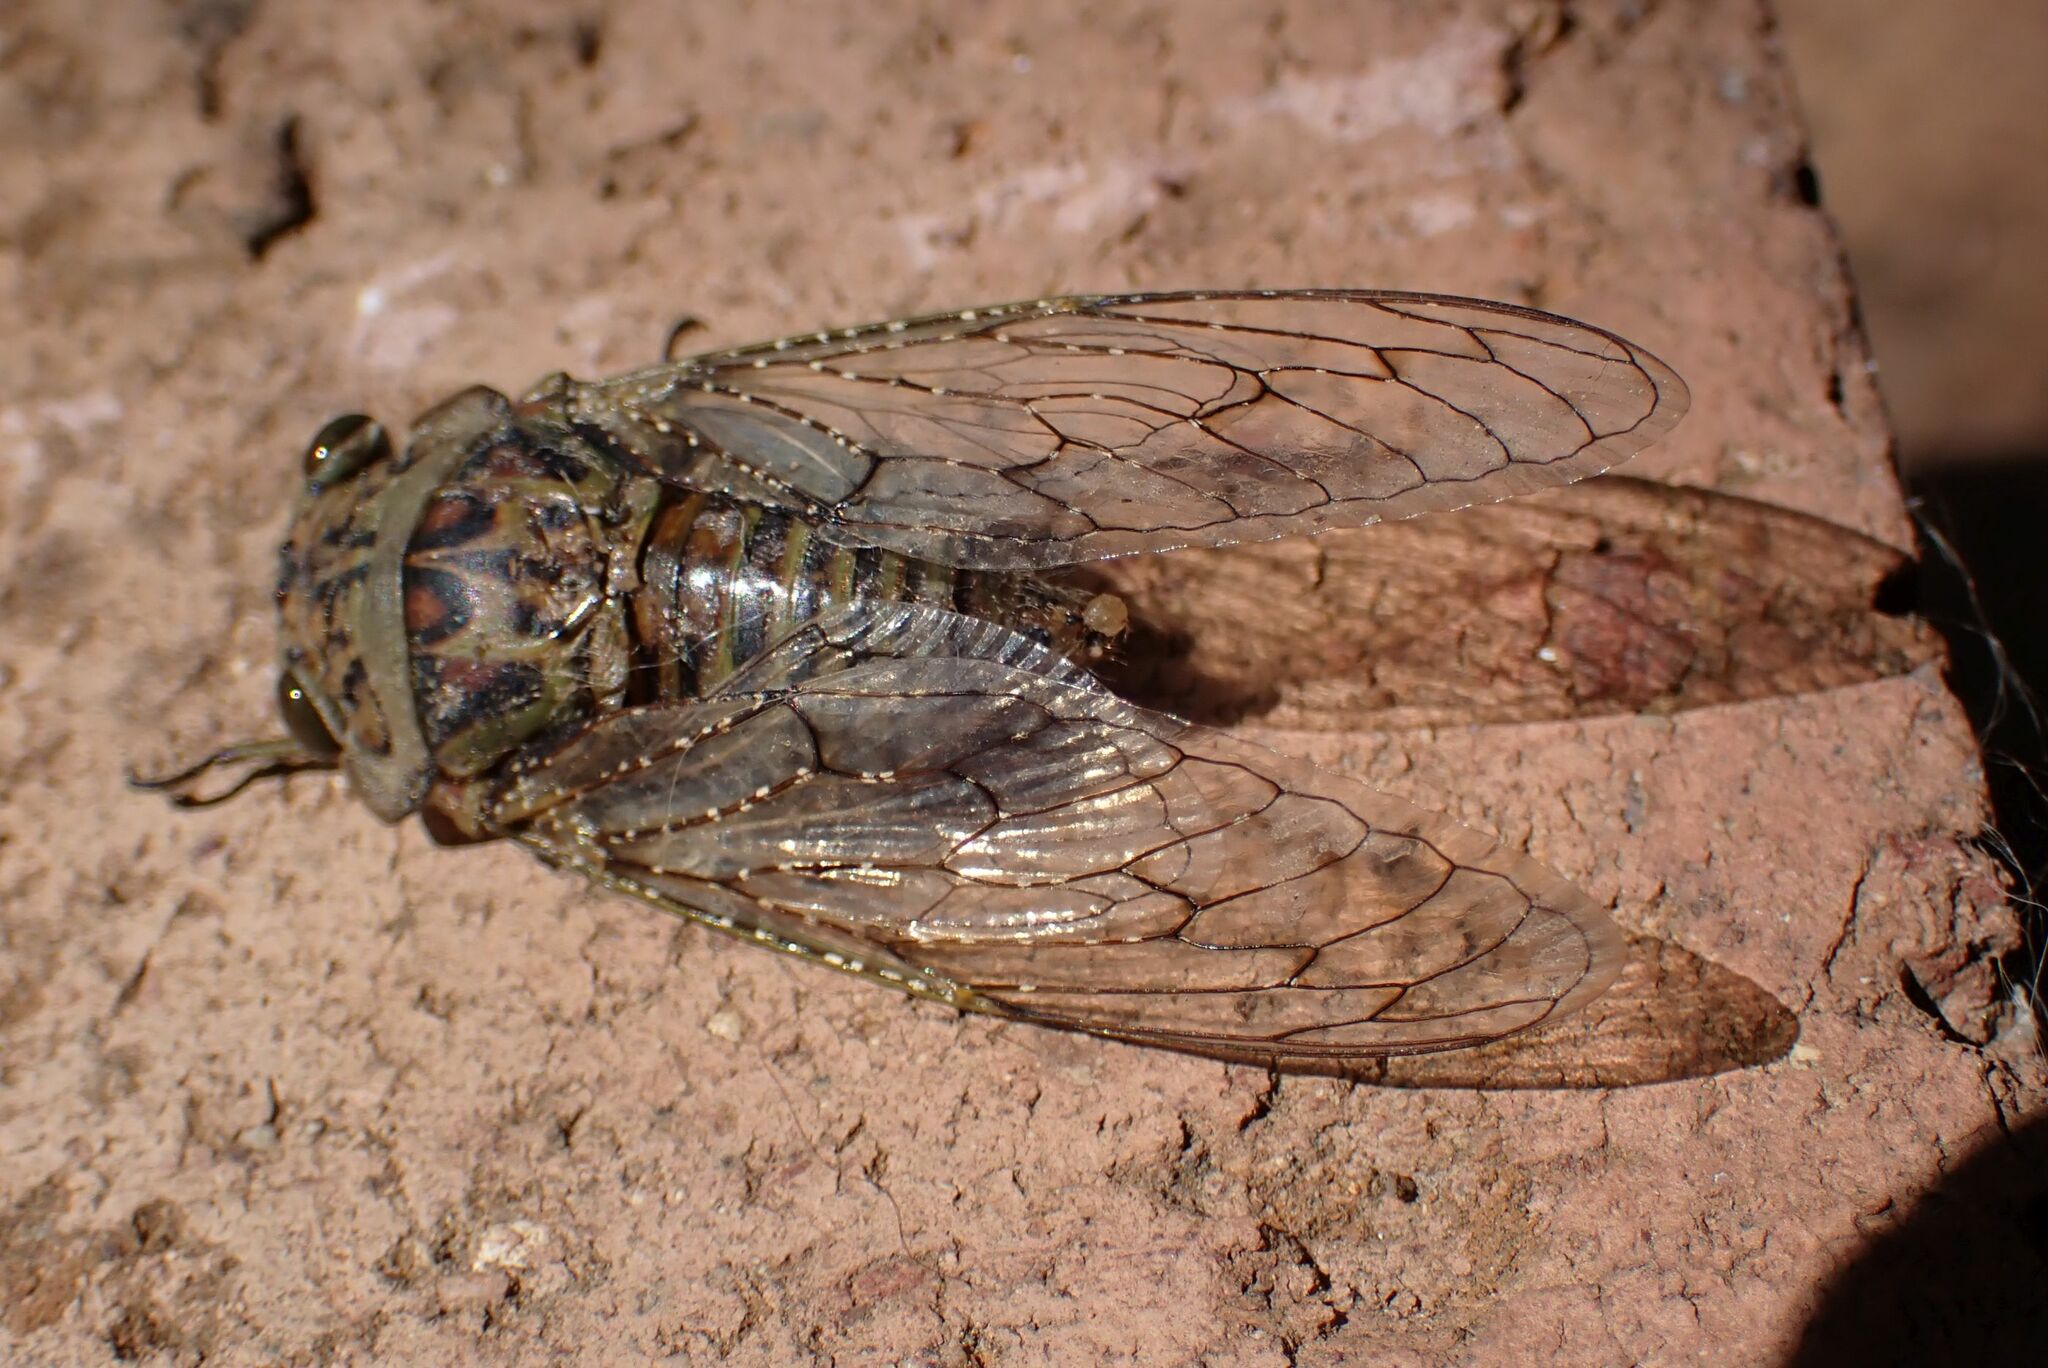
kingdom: Animalia
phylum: Arthropoda
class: Insecta
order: Hemiptera
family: Cicadidae
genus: Brevisiana
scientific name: Brevisiana brevis
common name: Shrill thorntree cicada
